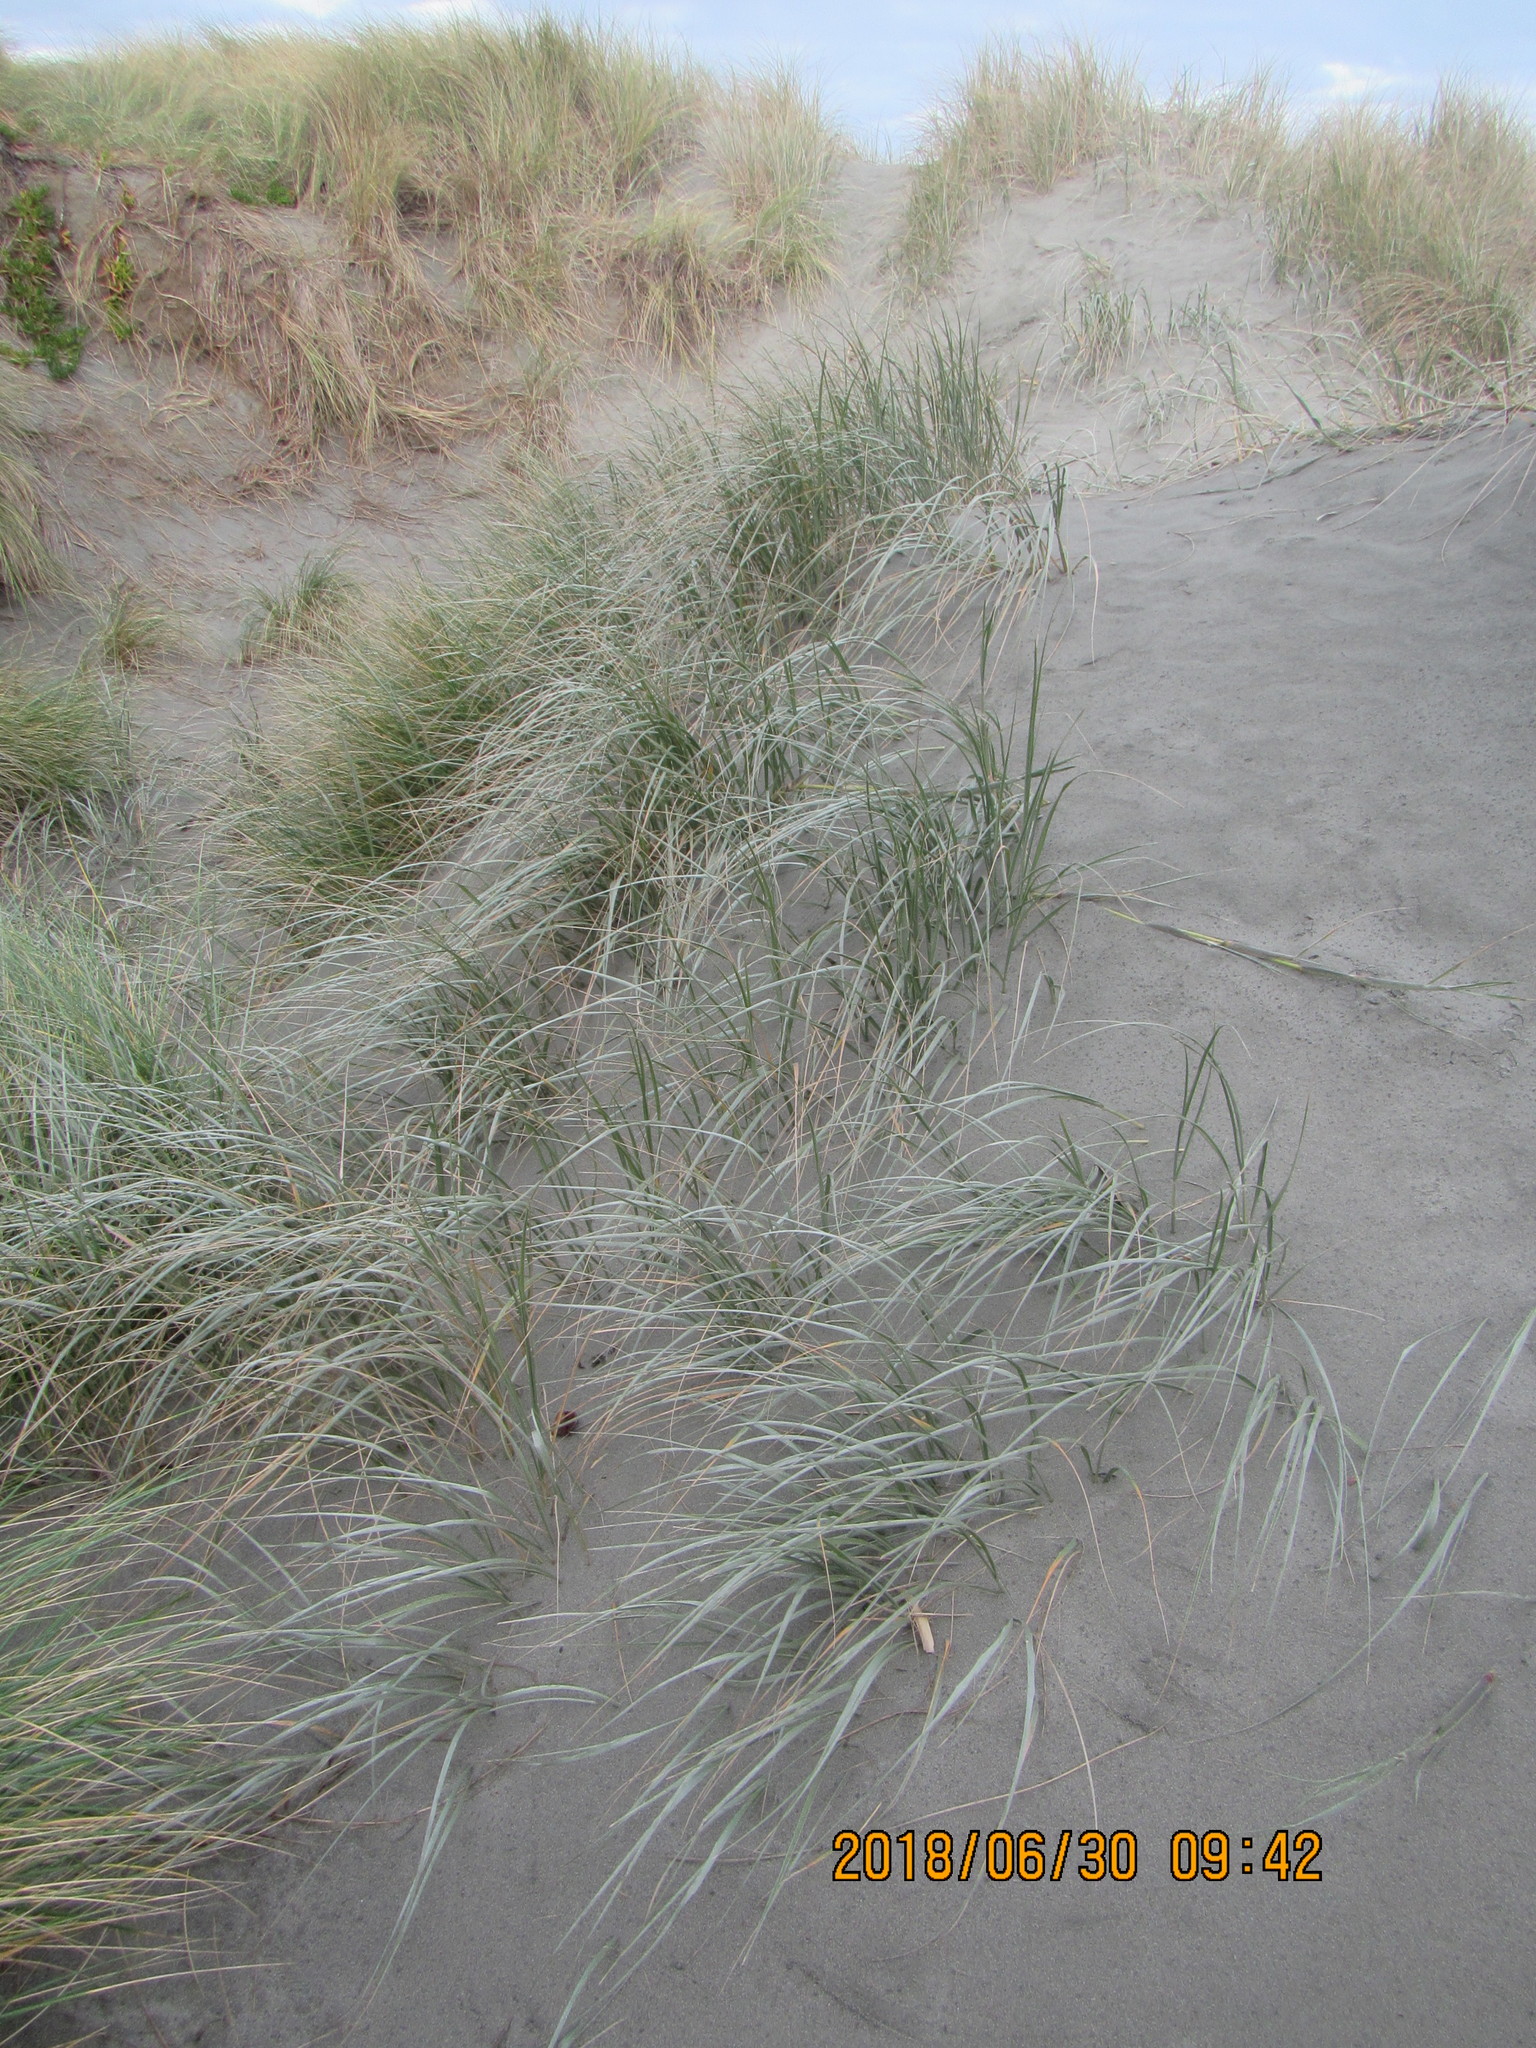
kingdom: Plantae
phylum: Tracheophyta
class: Liliopsida
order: Poales
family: Poaceae
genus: Spinifex
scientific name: Spinifex sericeus
